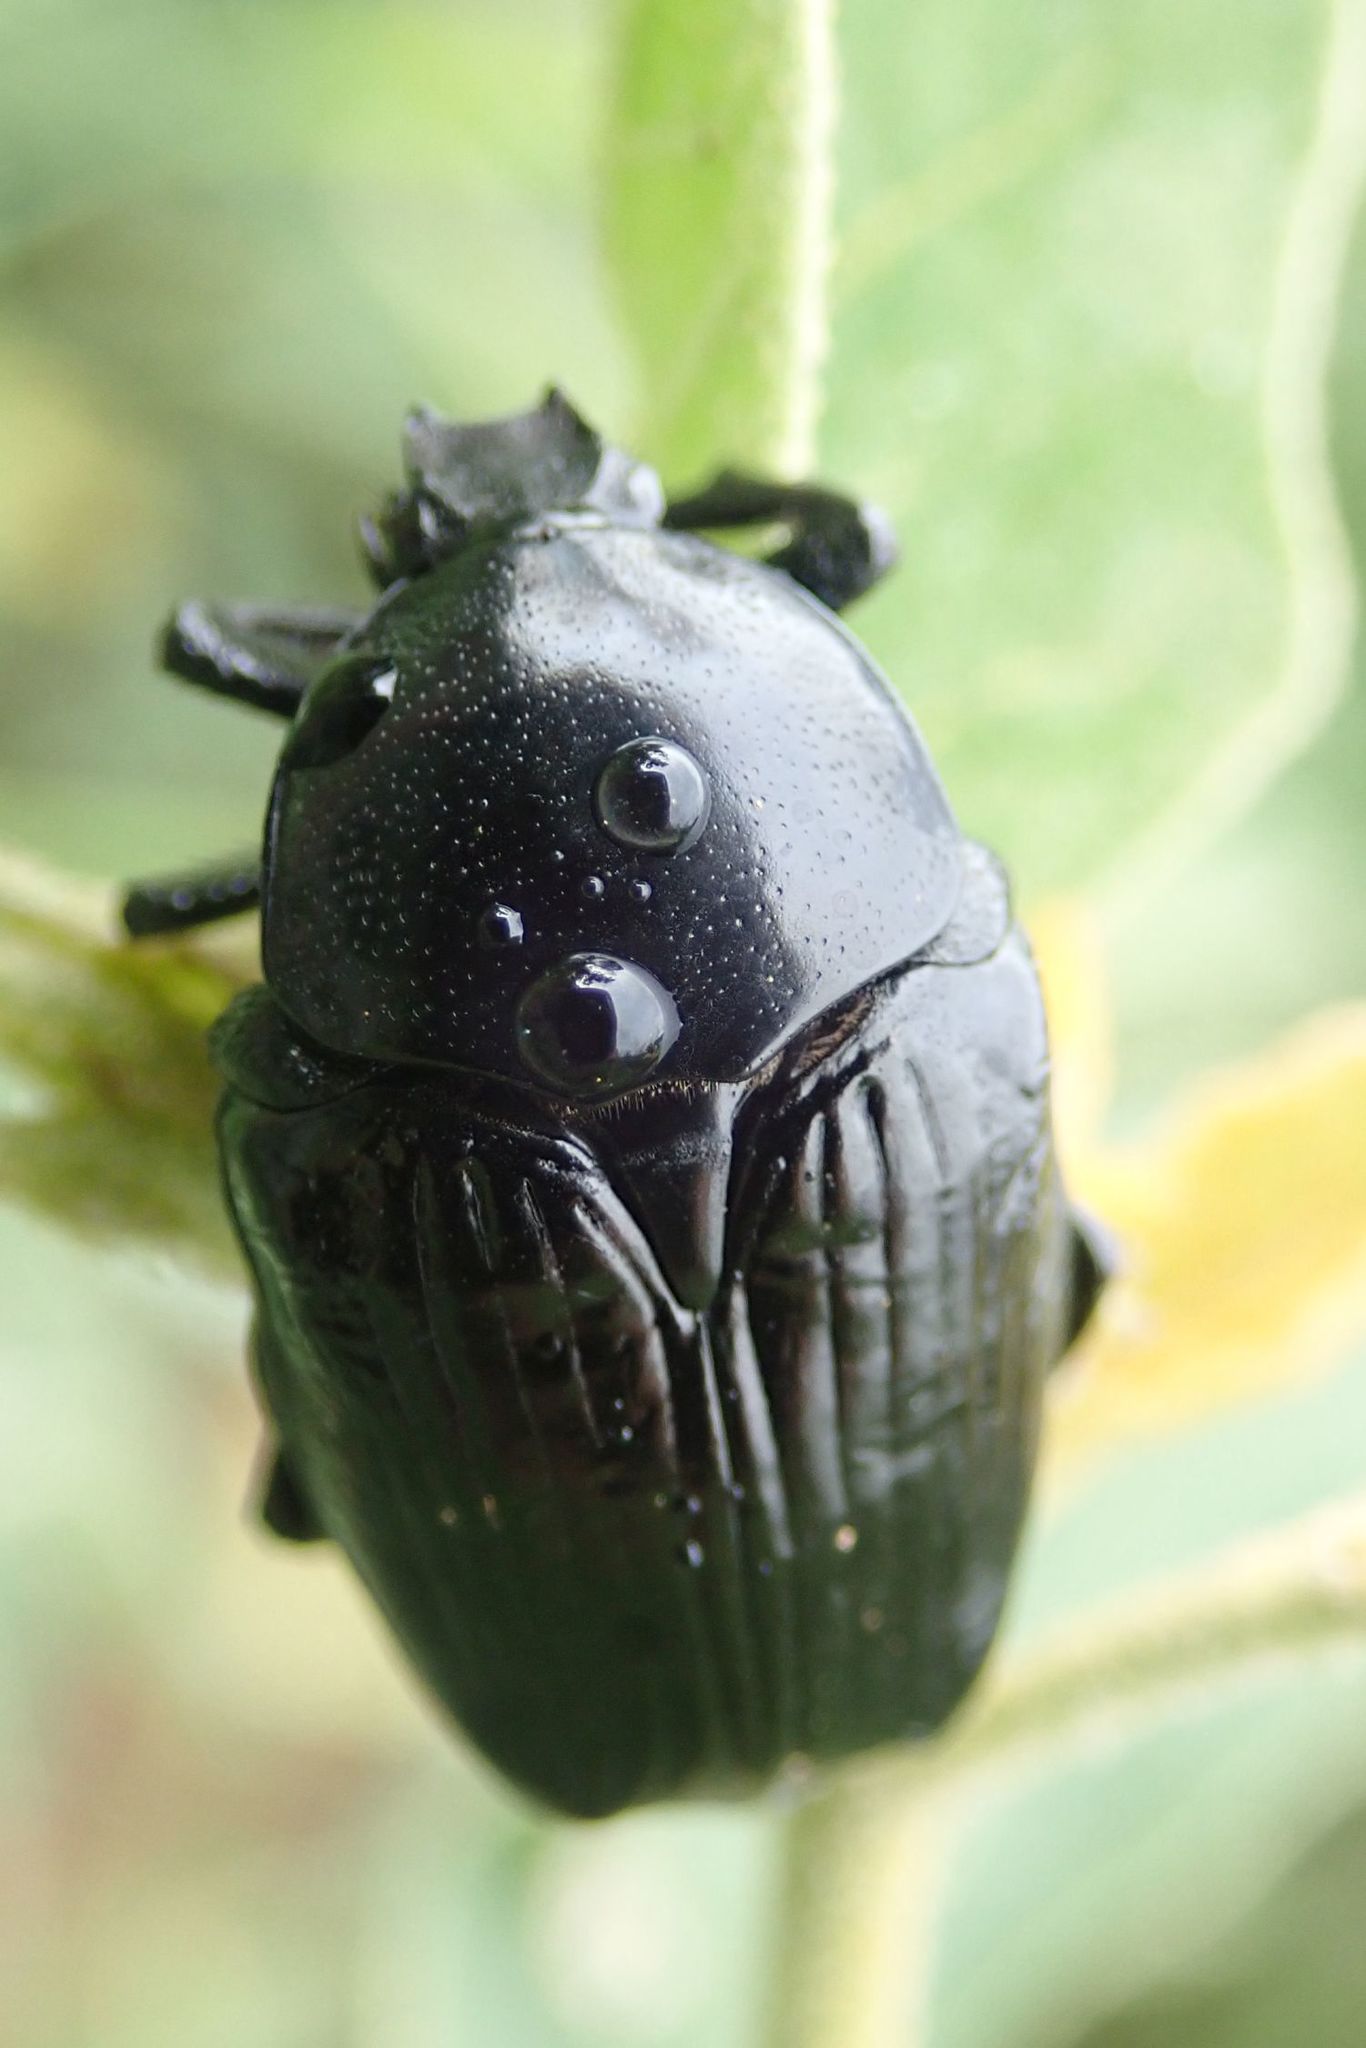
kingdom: Animalia
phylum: Arthropoda
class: Insecta
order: Coleoptera
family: Scarabaeidae
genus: Diplognatha
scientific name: Diplognatha striata
